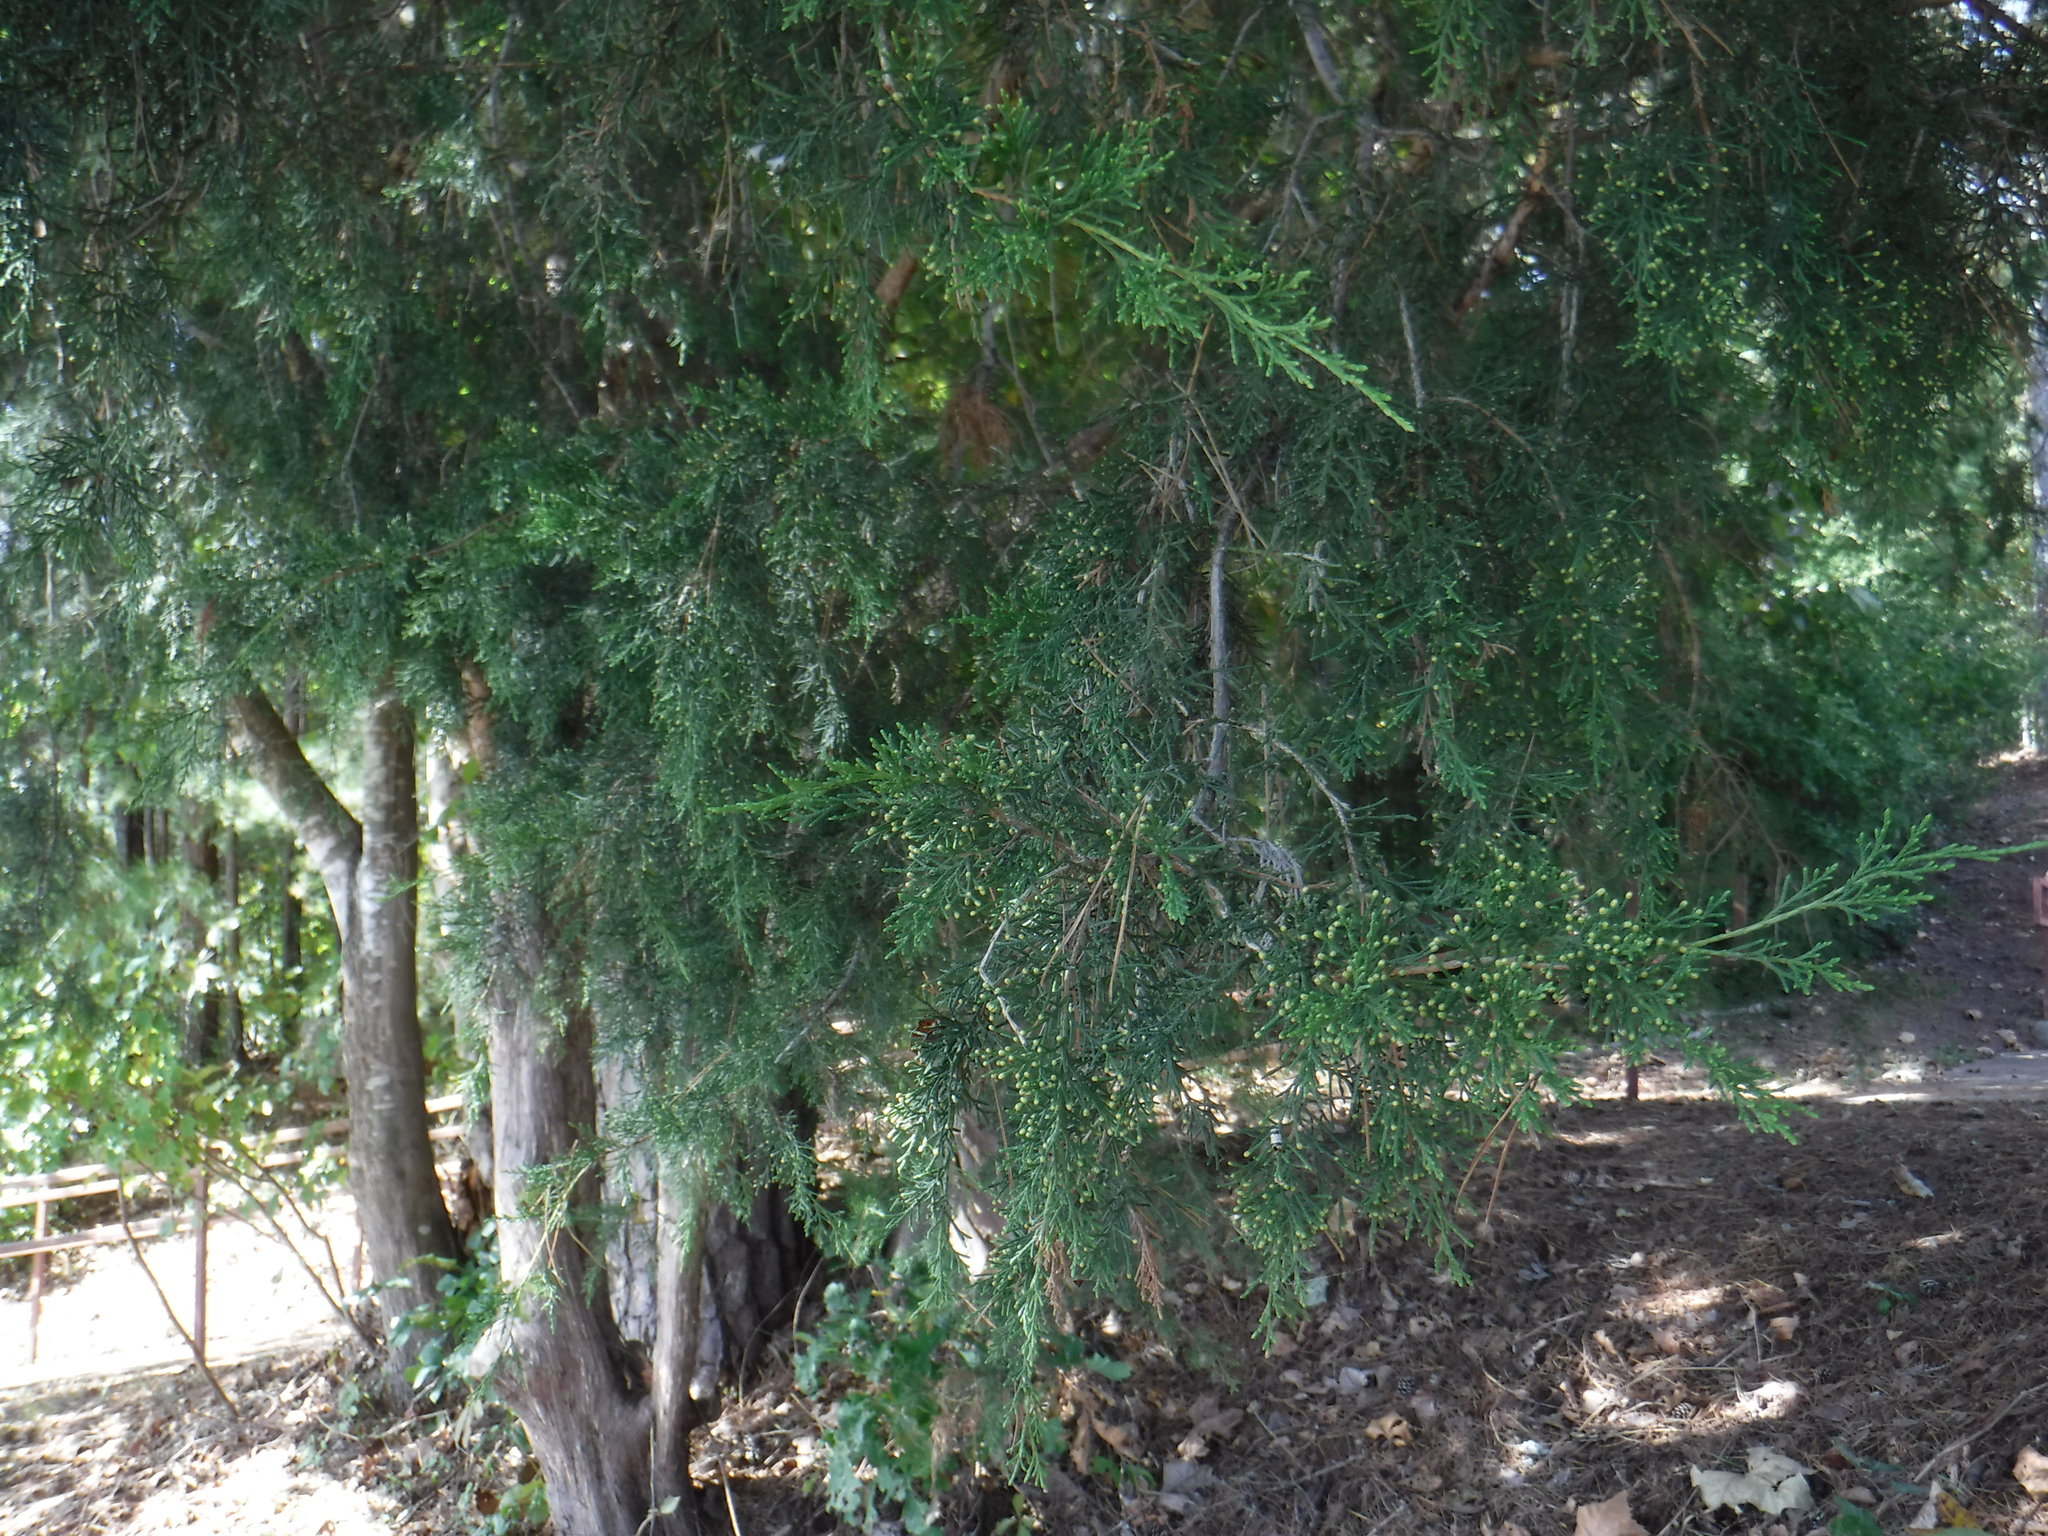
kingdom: Plantae
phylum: Tracheophyta
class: Pinopsida
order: Pinales
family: Cupressaceae
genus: Juniperus
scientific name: Juniperus virginiana
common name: Red juniper
